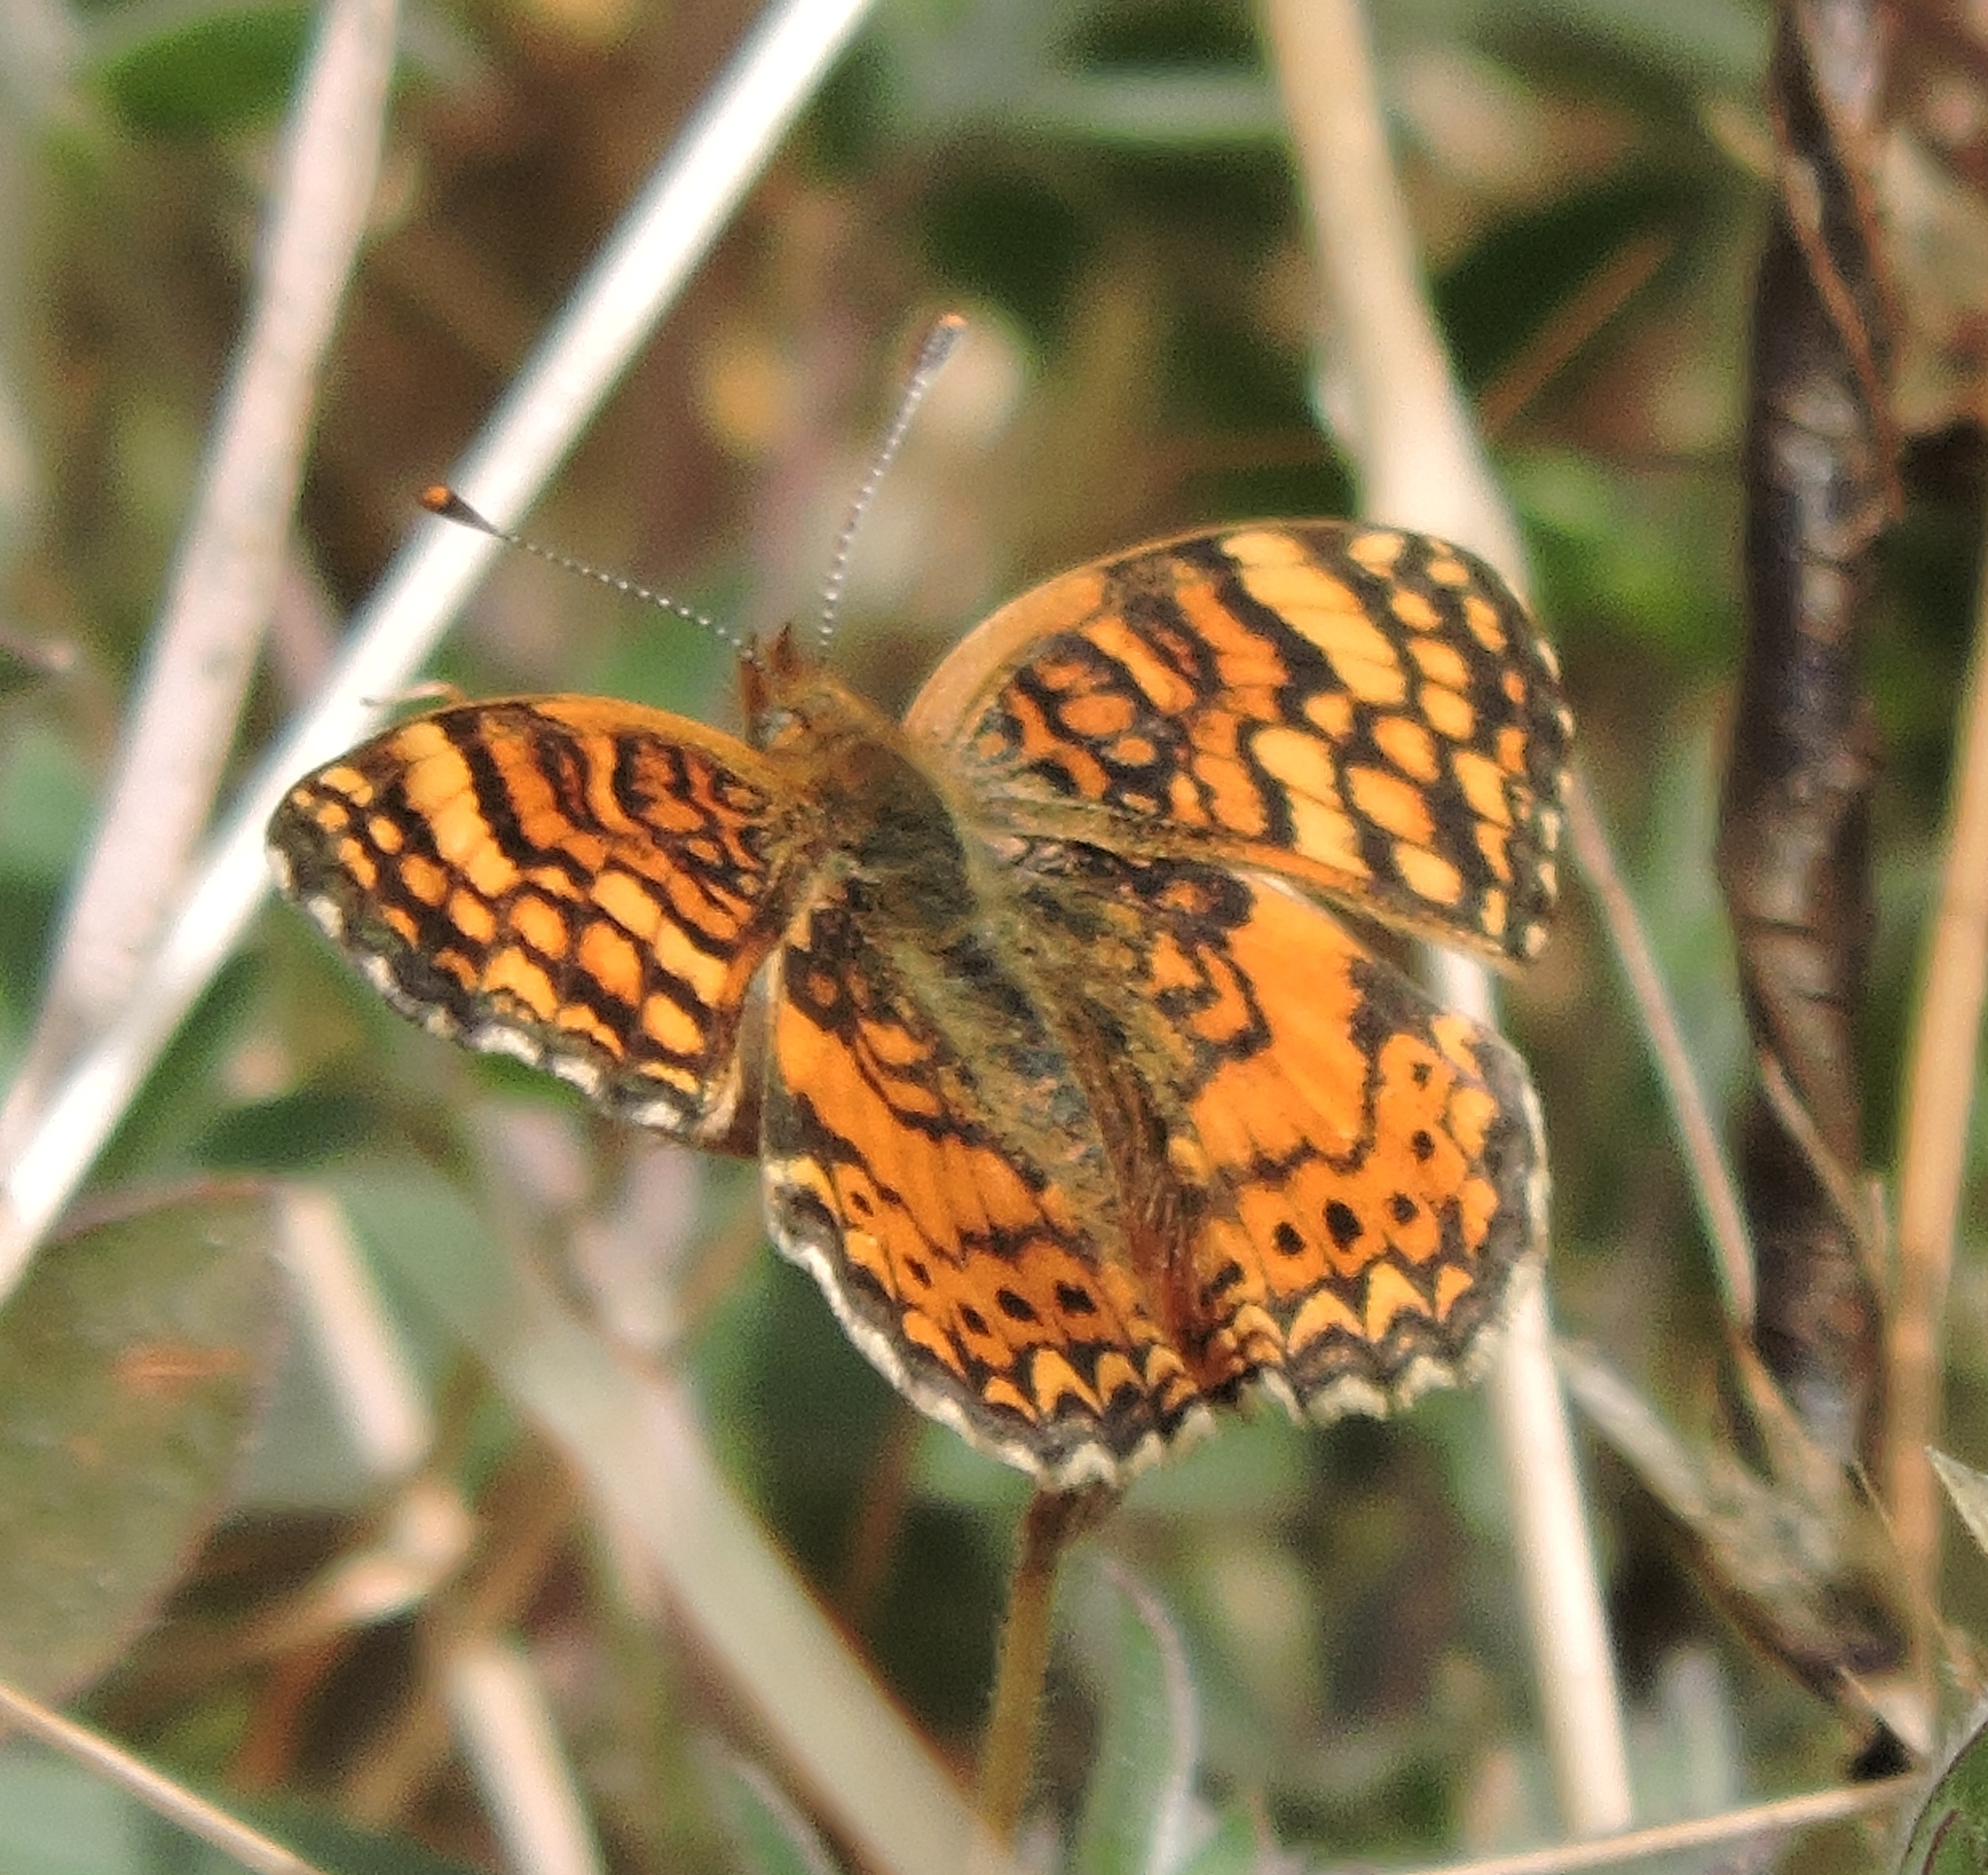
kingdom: Animalia
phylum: Arthropoda
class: Insecta
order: Lepidoptera
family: Nymphalidae
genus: Eresia
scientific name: Eresia aveyrona
